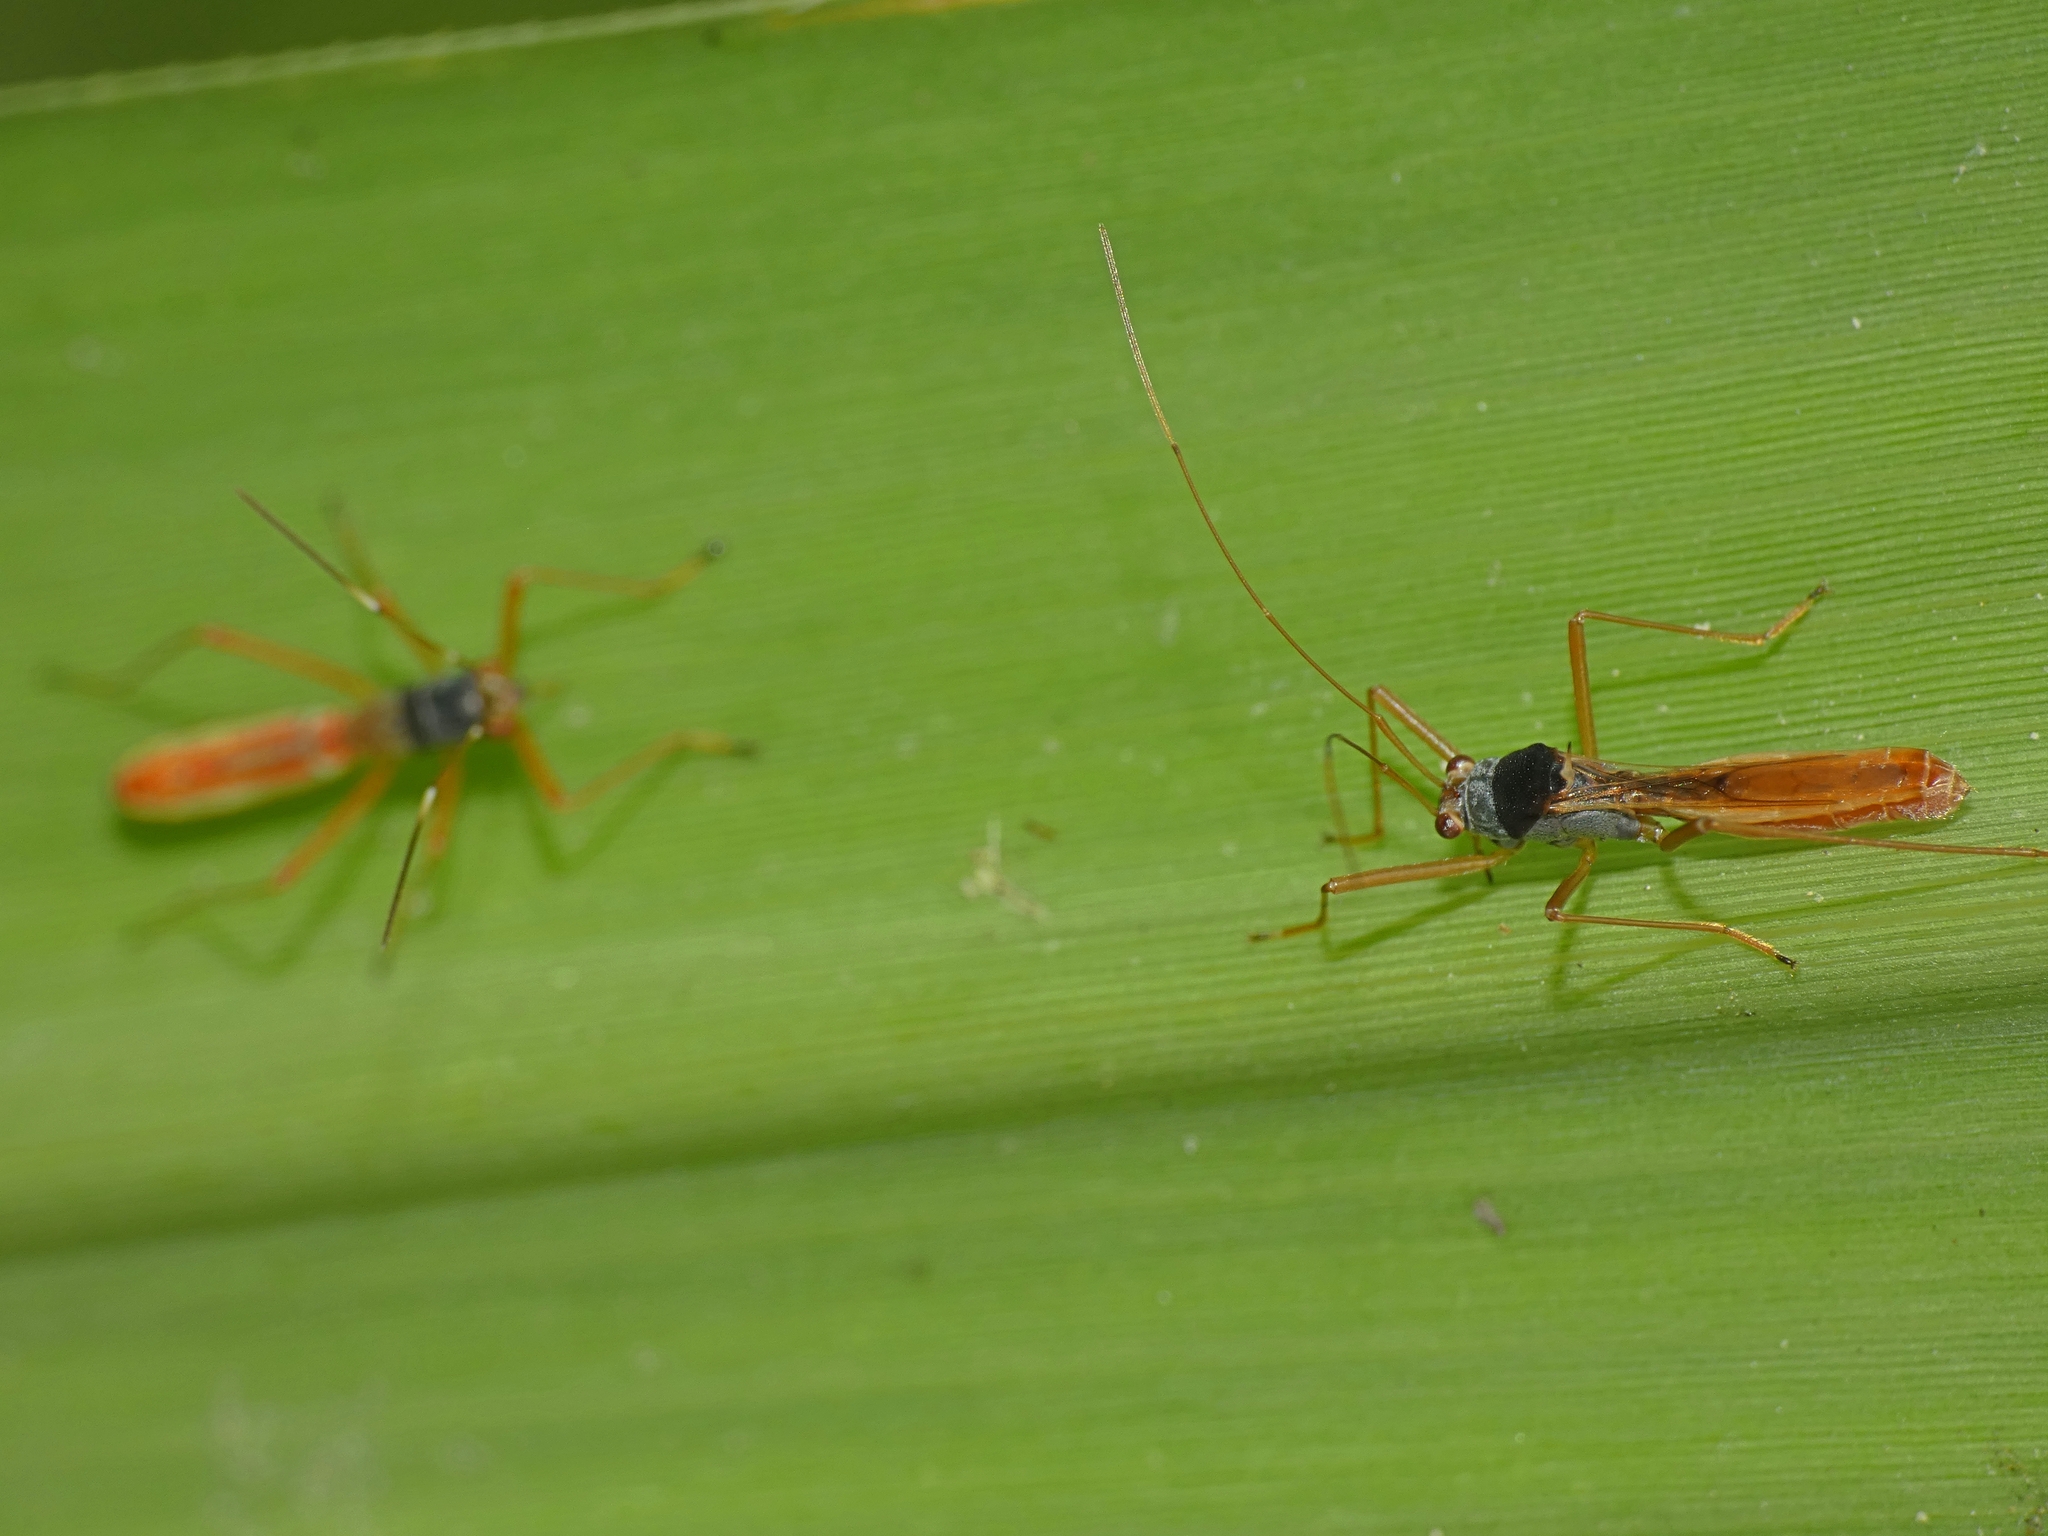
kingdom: Animalia
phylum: Arthropoda
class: Insecta
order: Hemiptera
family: Colobathristidae
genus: Phaenacantha
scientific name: Phaenacantha australiae
